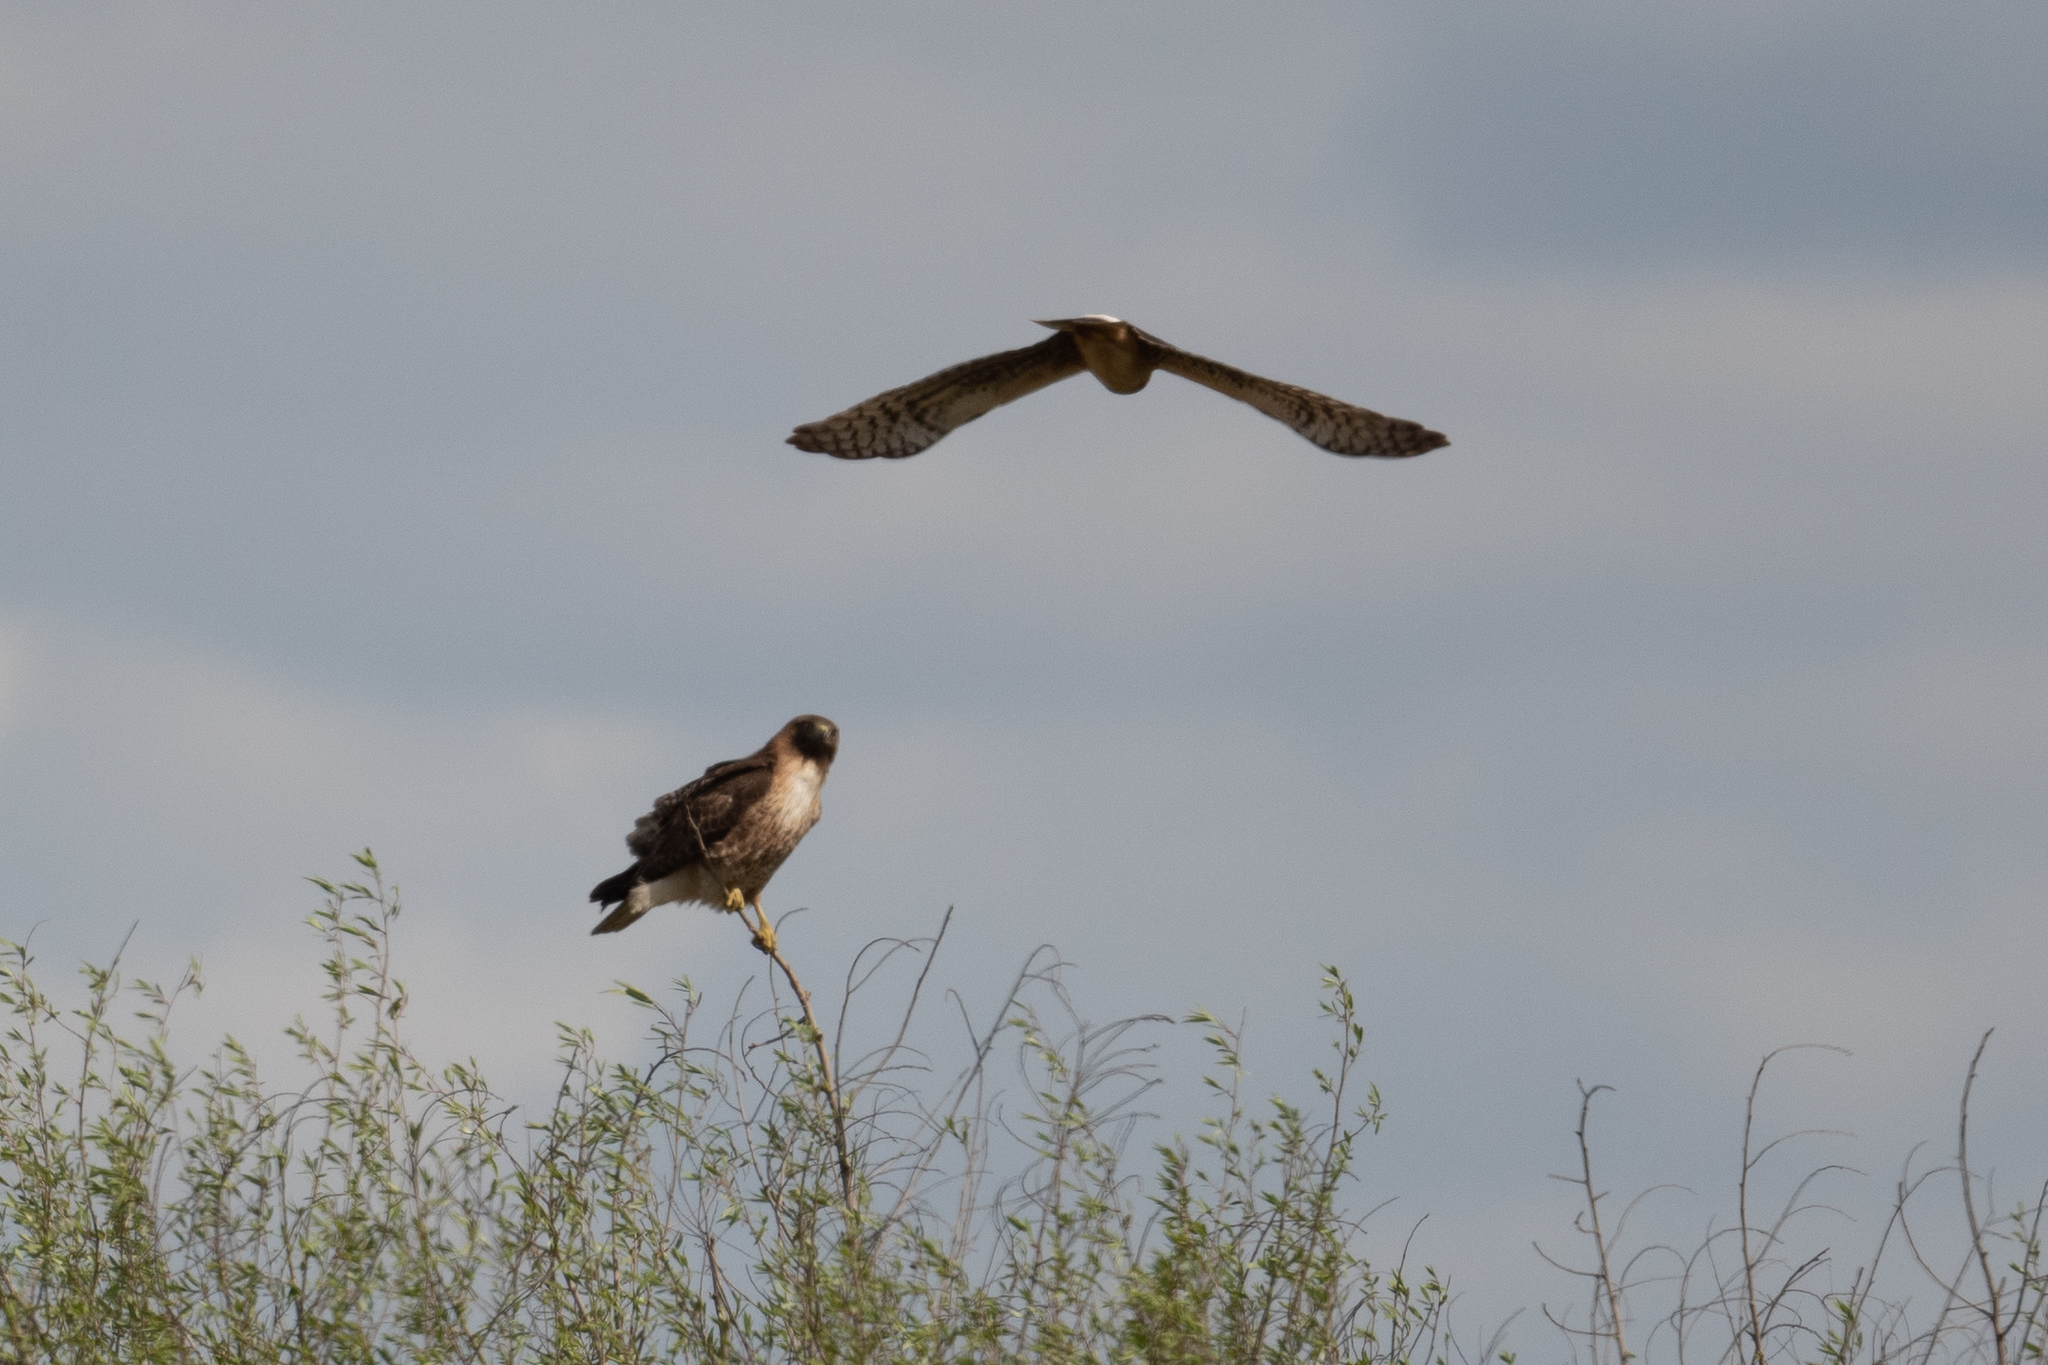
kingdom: Animalia
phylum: Chordata
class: Aves
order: Accipitriformes
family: Accipitridae
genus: Circus
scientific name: Circus cyaneus
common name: Hen harrier
